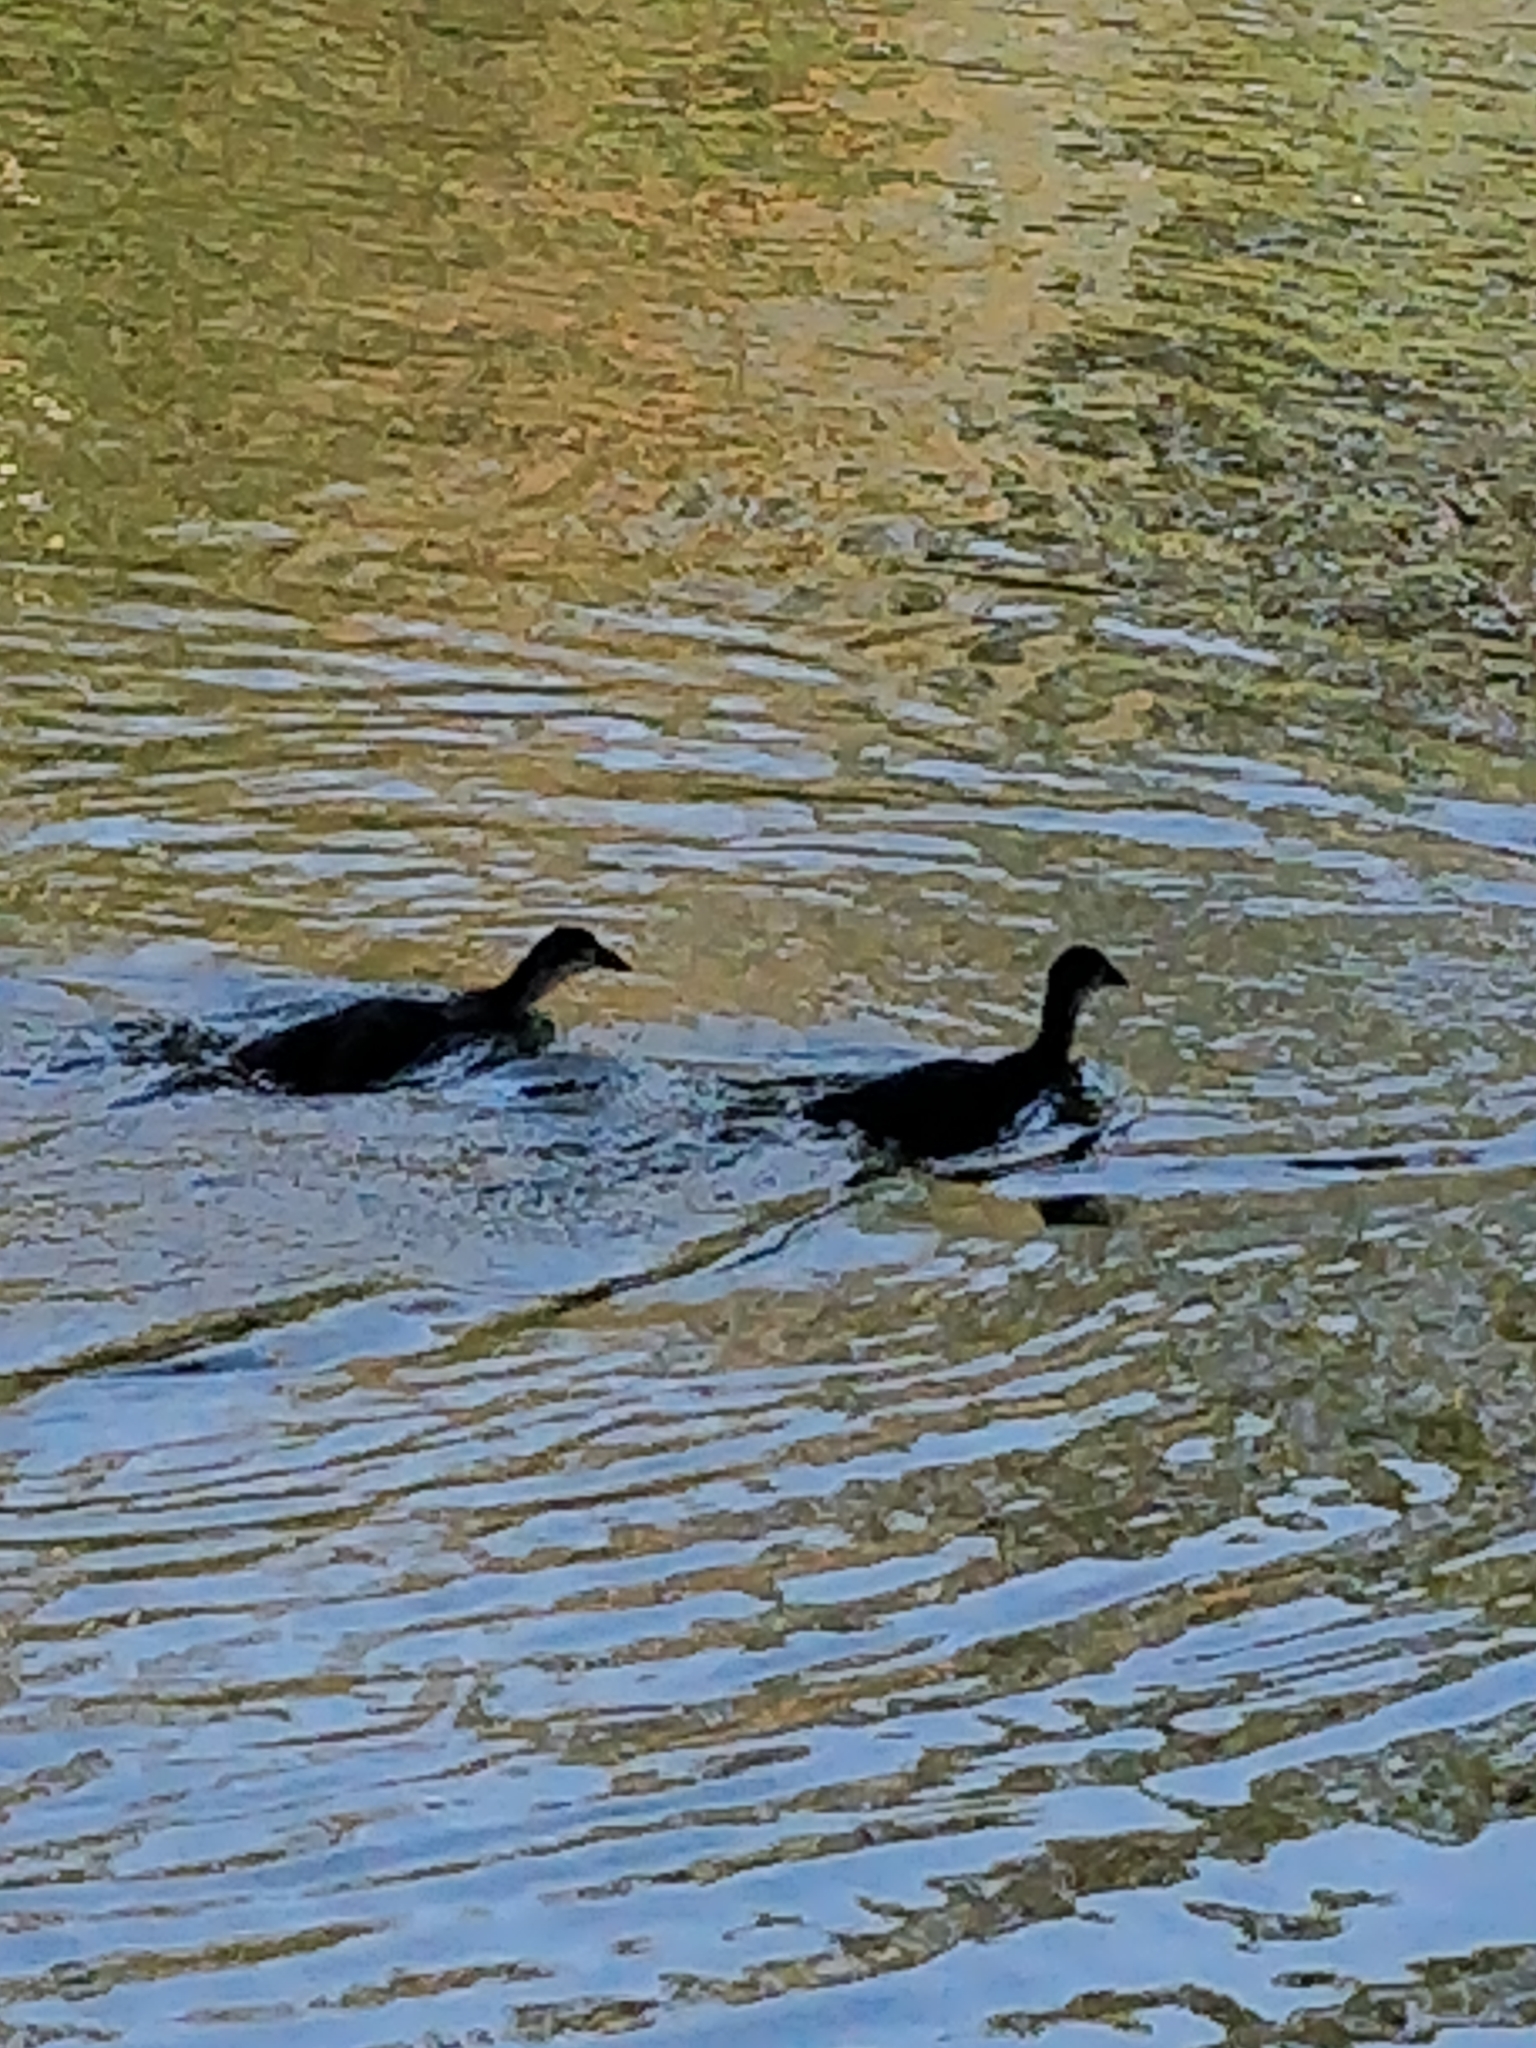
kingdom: Animalia
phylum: Chordata
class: Aves
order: Gruiformes
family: Rallidae
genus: Fulica
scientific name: Fulica atra
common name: Eurasian coot
